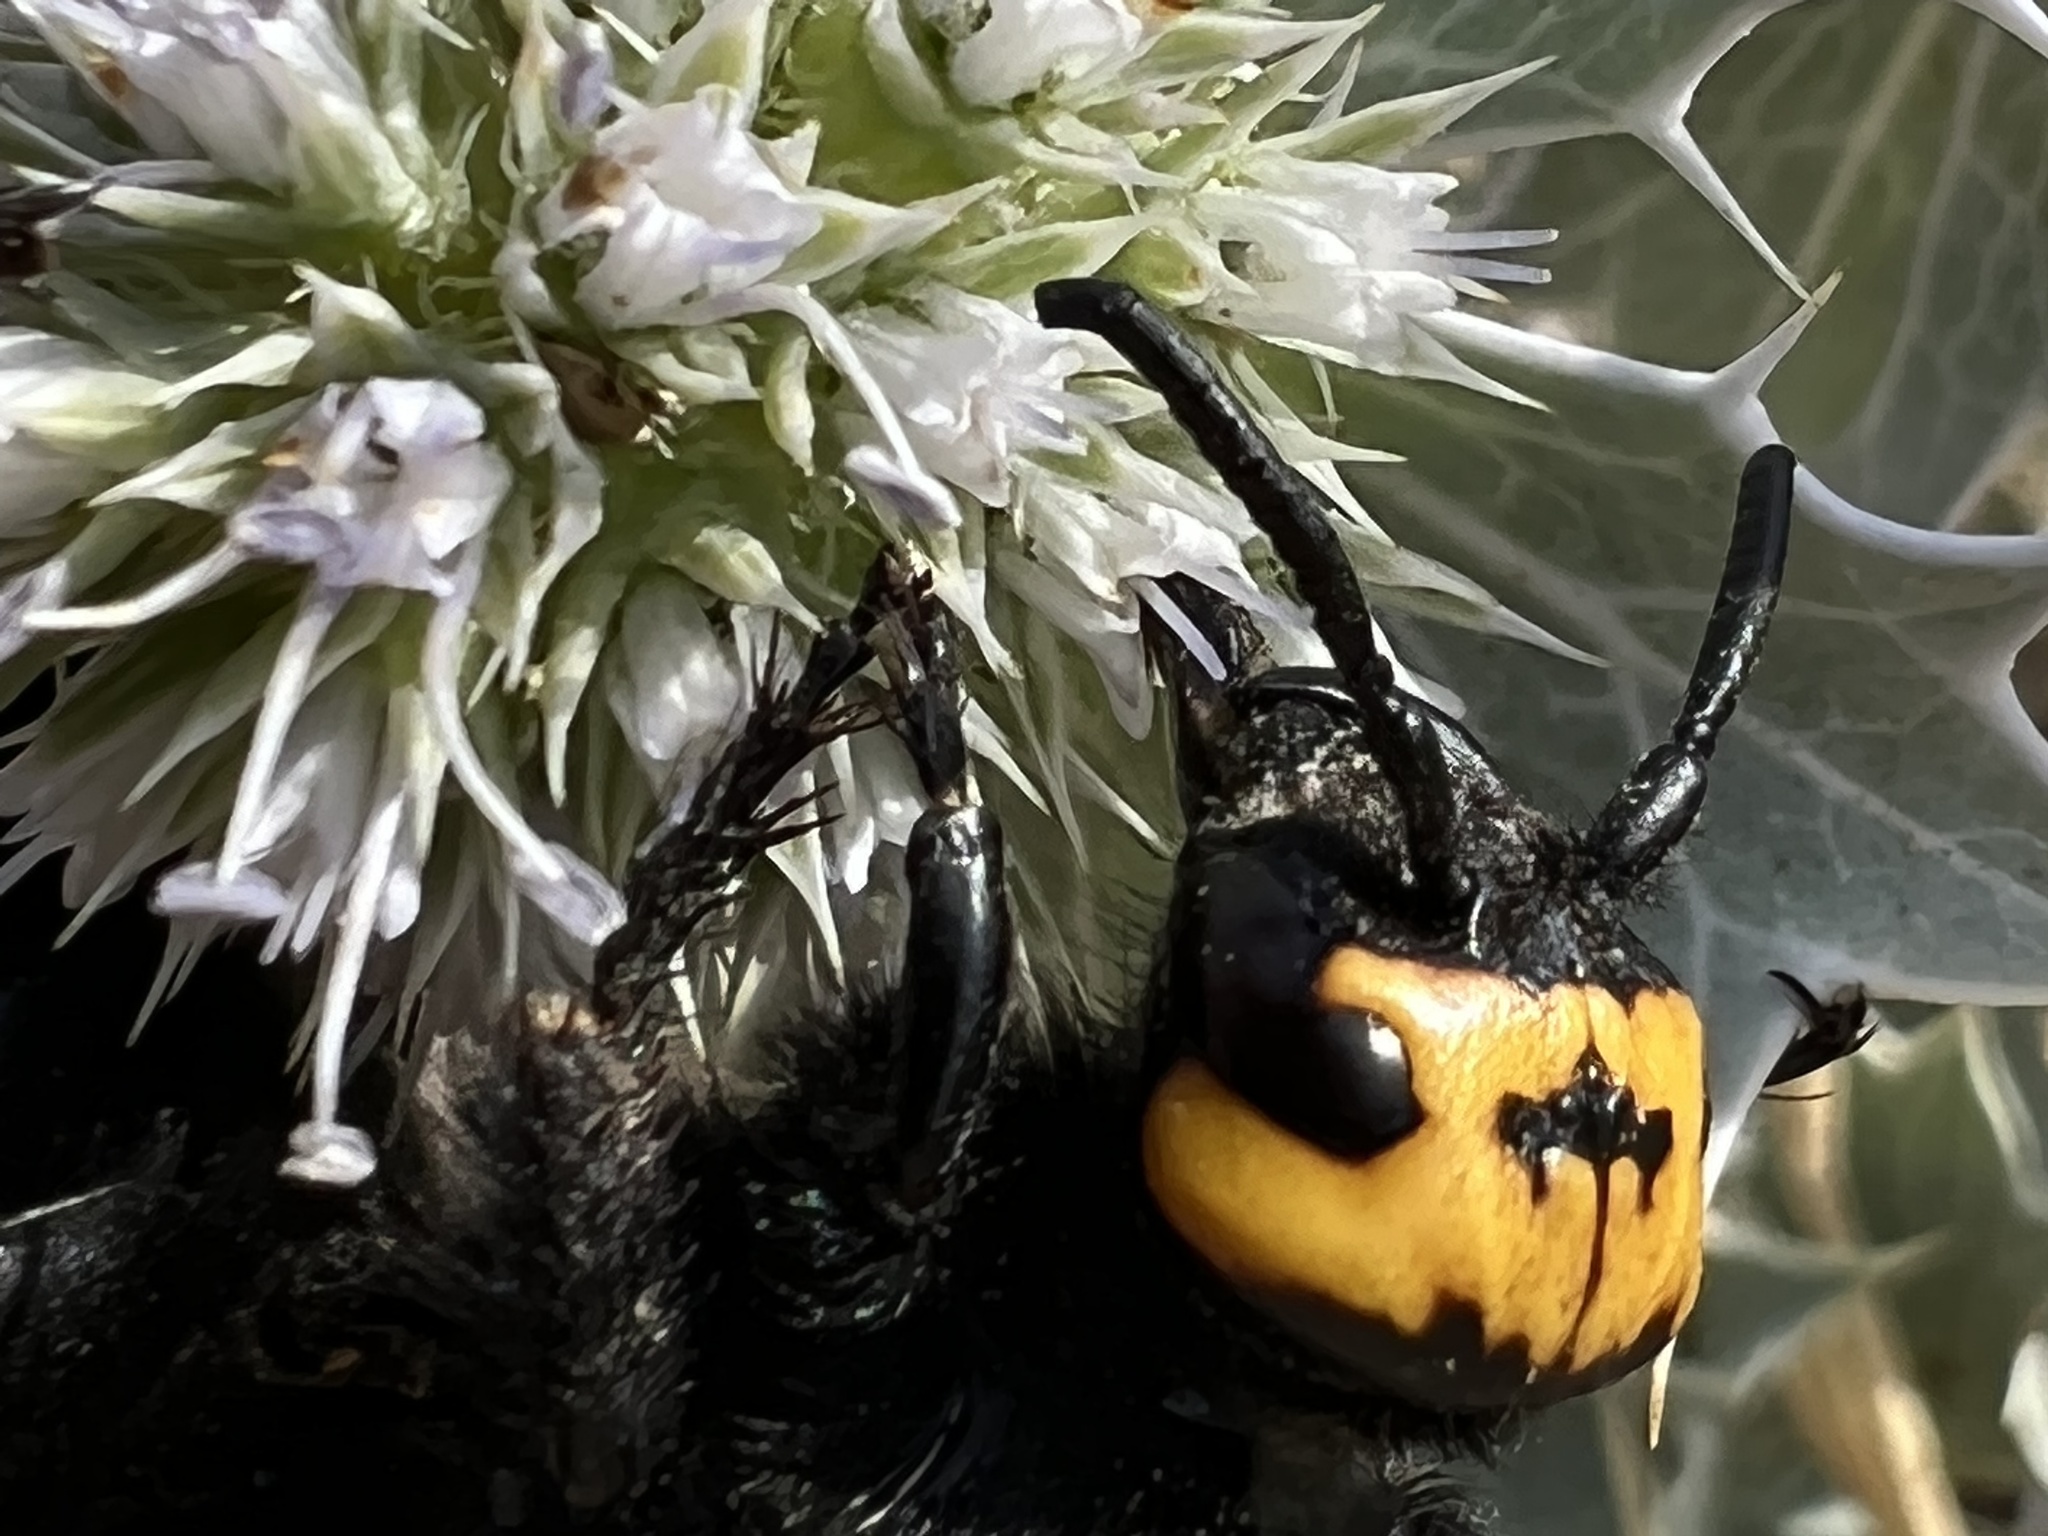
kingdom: Animalia
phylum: Arthropoda
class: Insecta
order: Hymenoptera
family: Scoliidae
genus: Megascolia
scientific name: Megascolia maculata
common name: Mammoth wasp
